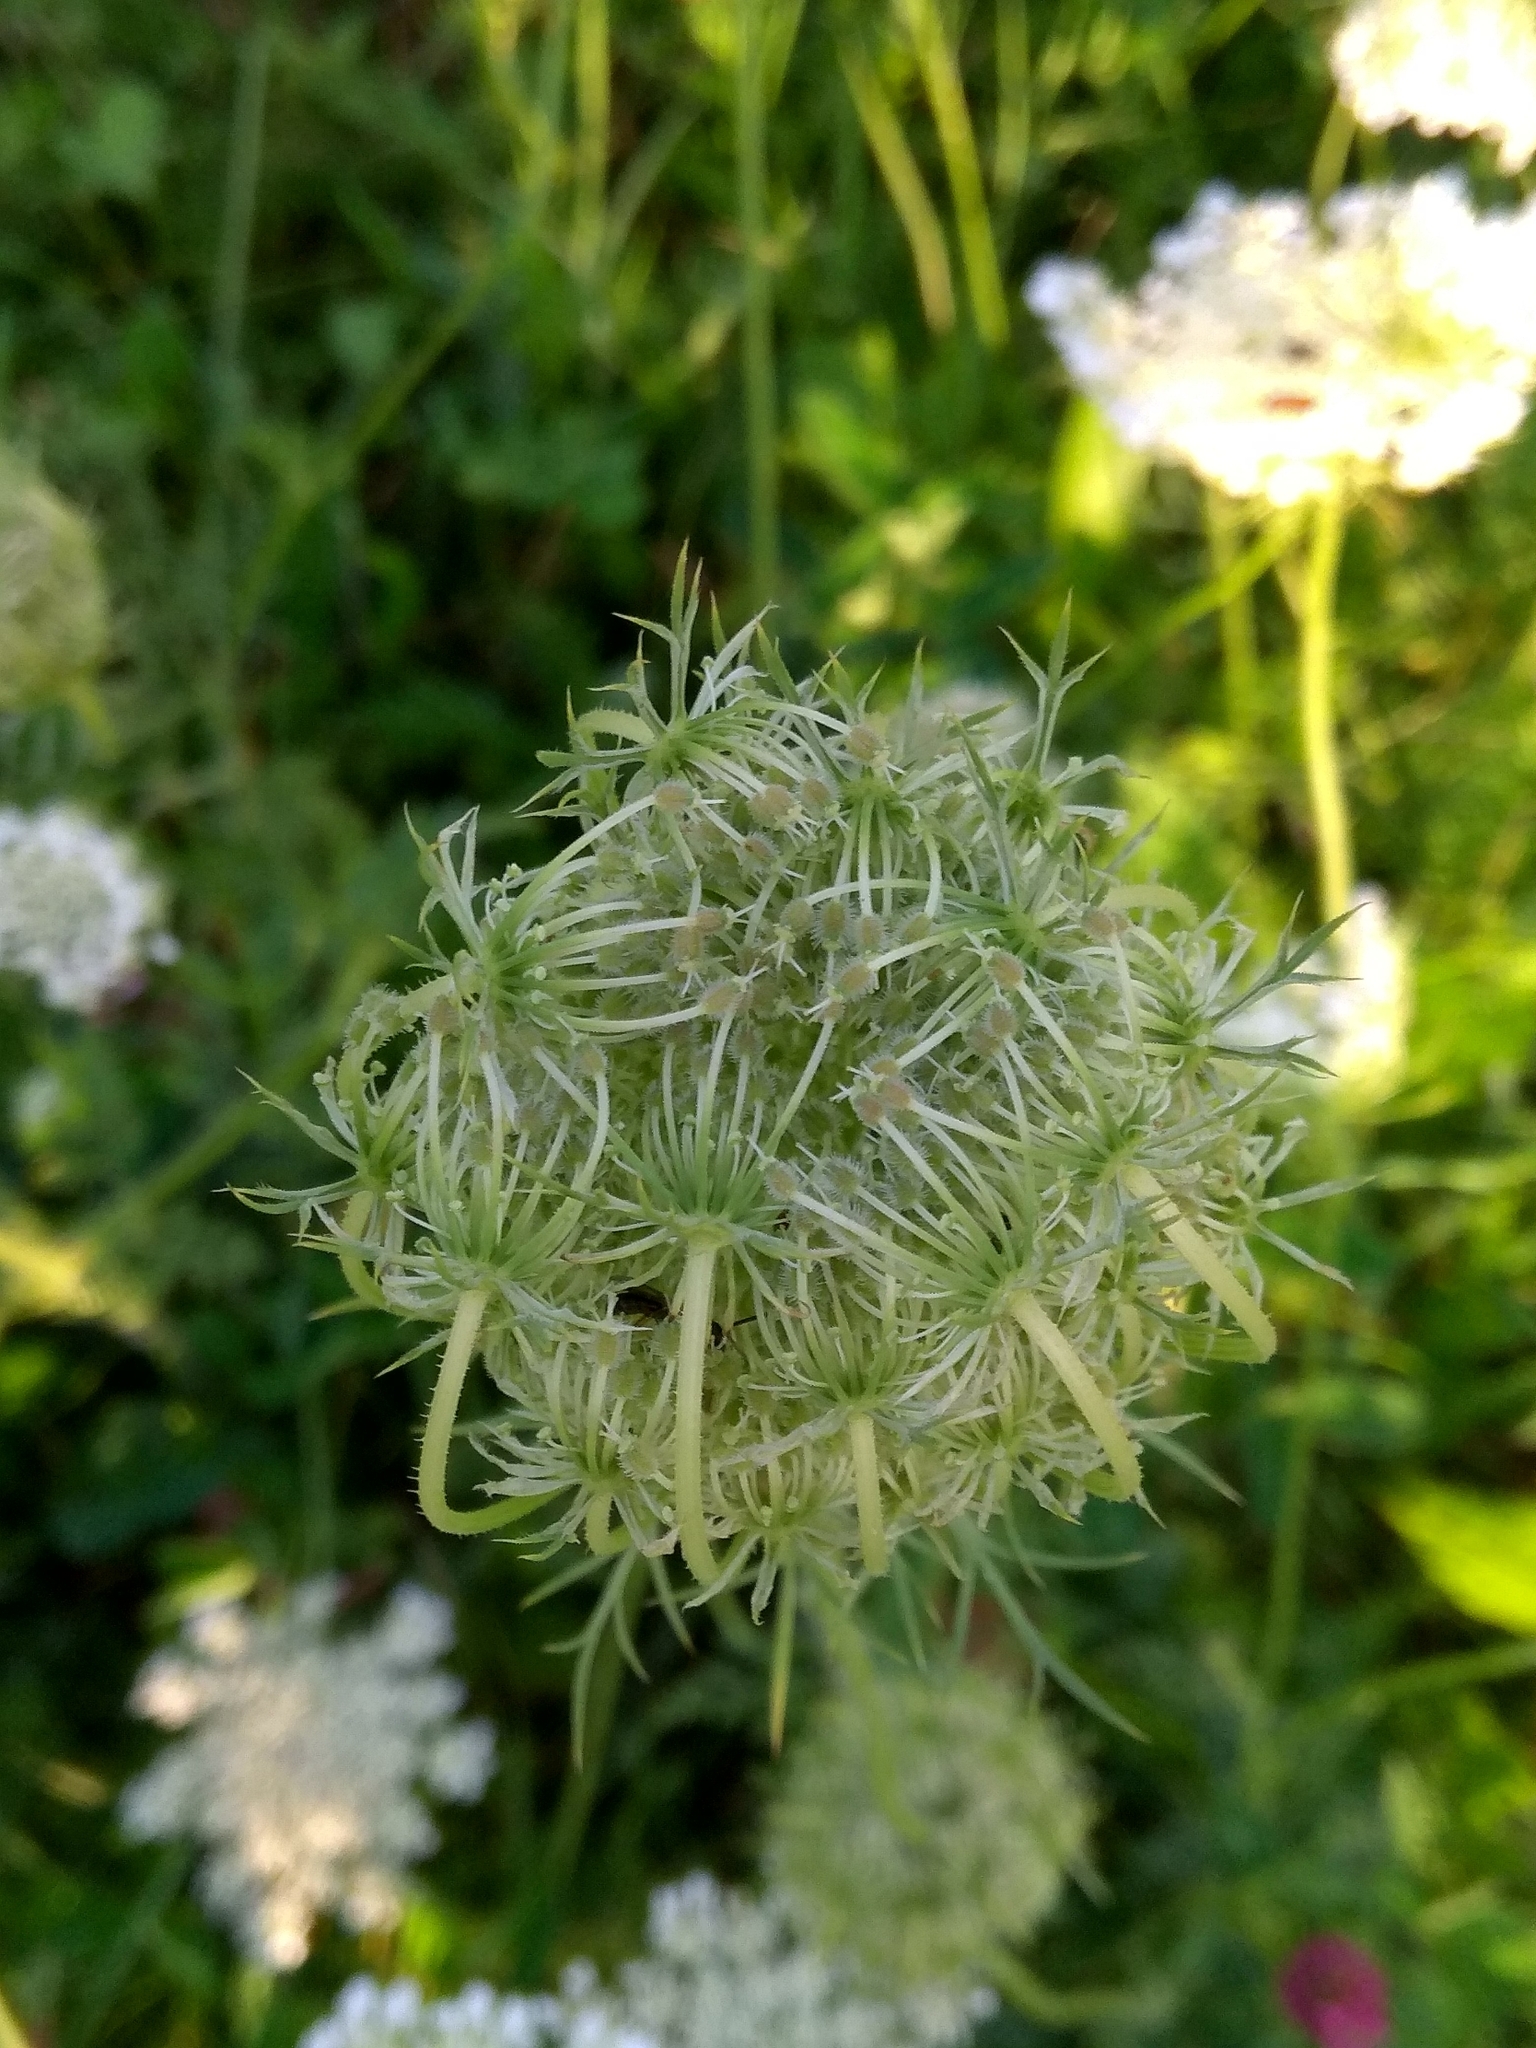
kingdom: Plantae
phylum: Tracheophyta
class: Magnoliopsida
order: Apiales
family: Apiaceae
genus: Daucus
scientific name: Daucus carota
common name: Wild carrot
